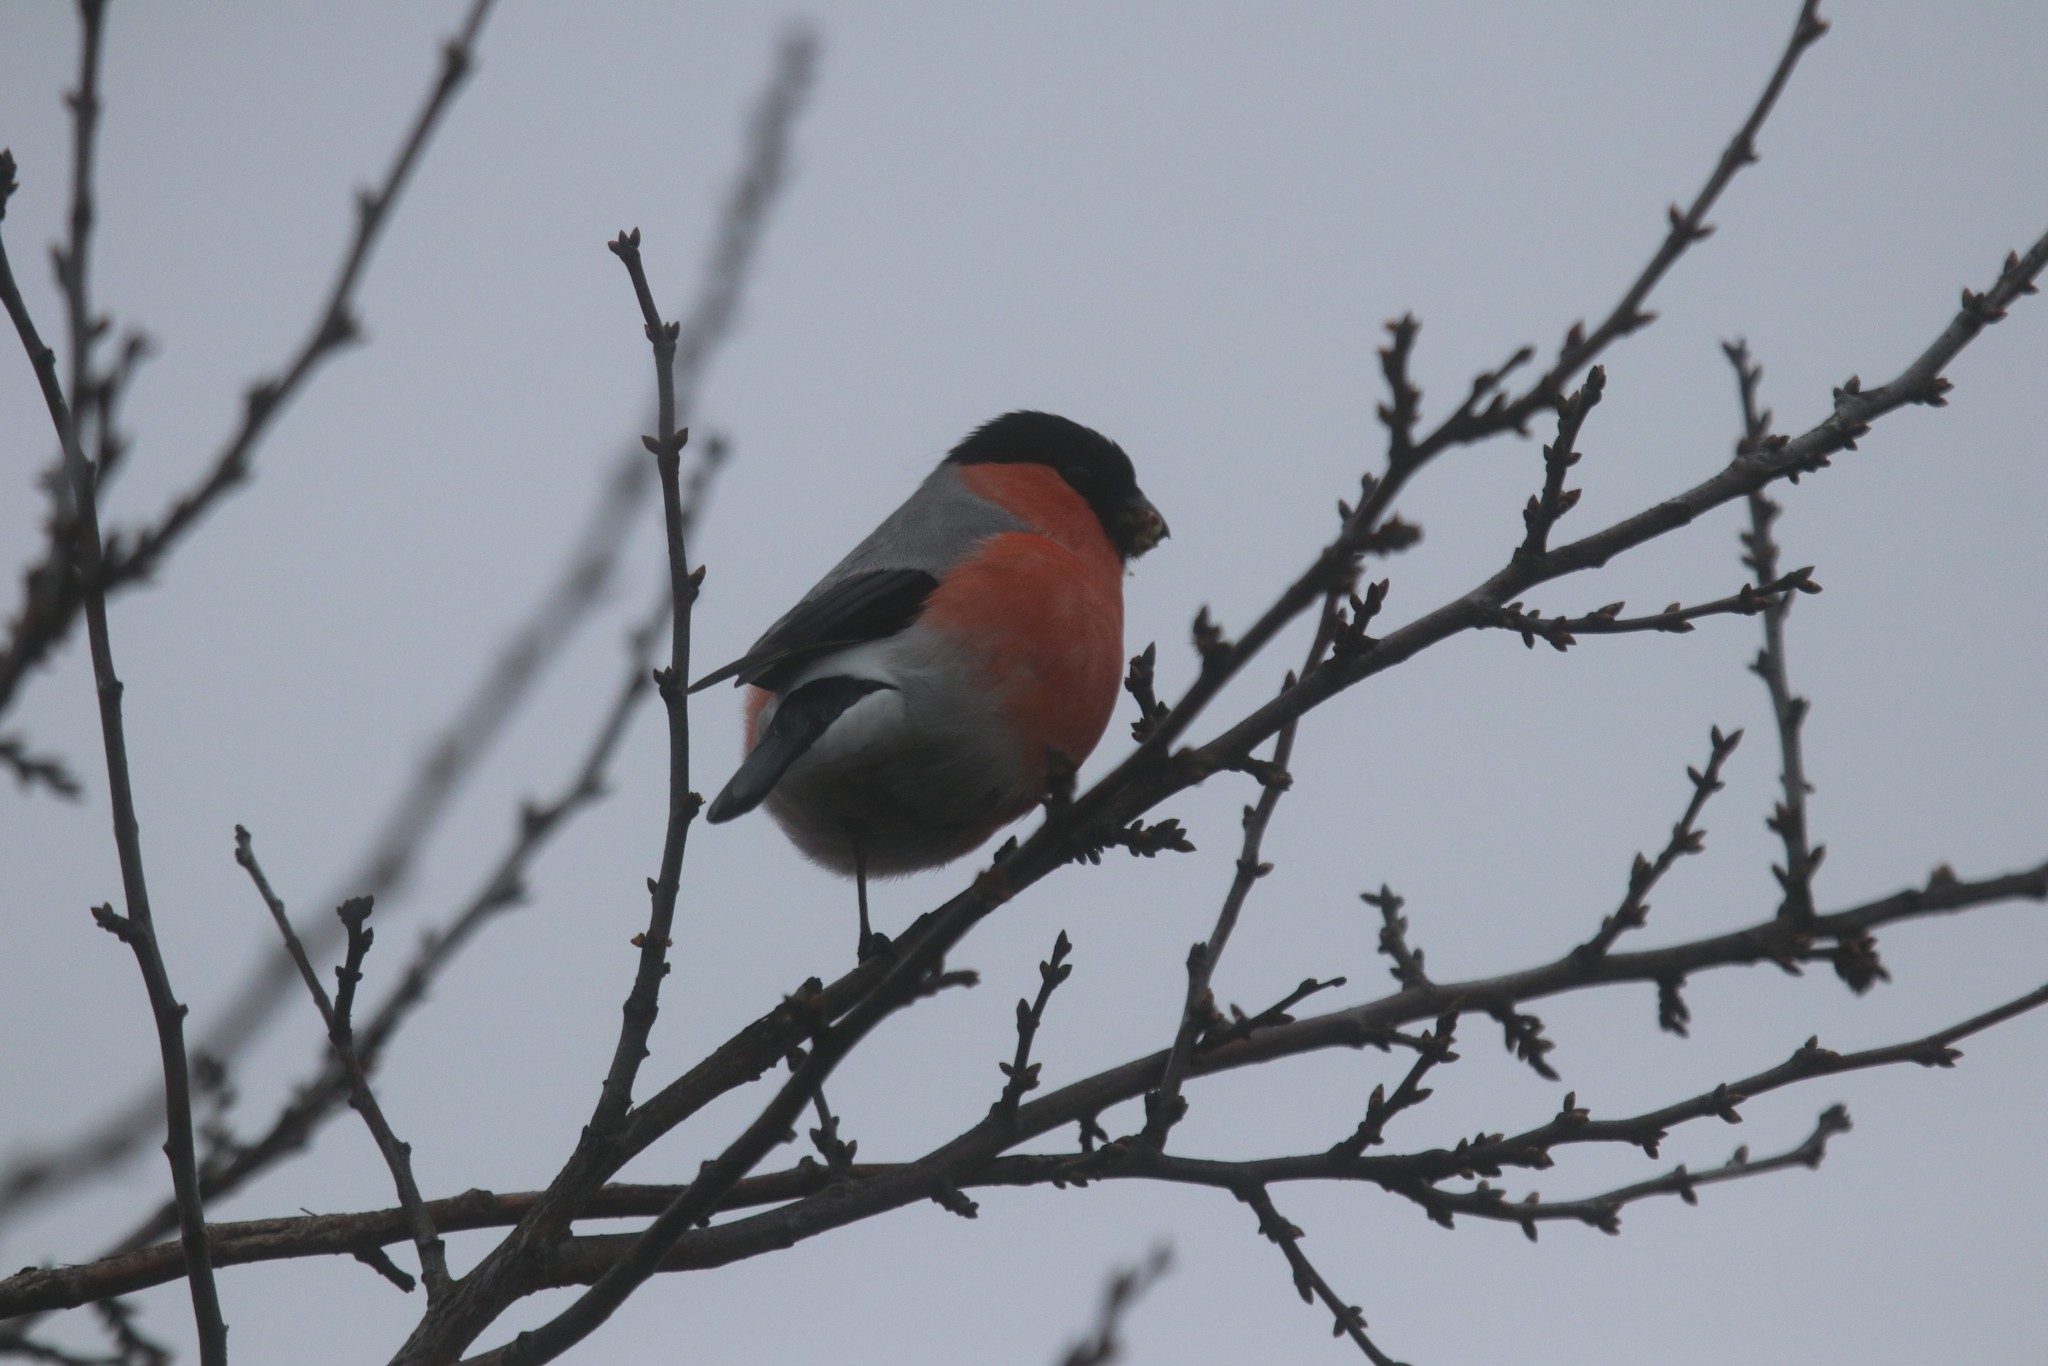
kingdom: Animalia
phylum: Chordata
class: Aves
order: Passeriformes
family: Fringillidae
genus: Pyrrhula
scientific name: Pyrrhula pyrrhula
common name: Eurasian bullfinch
